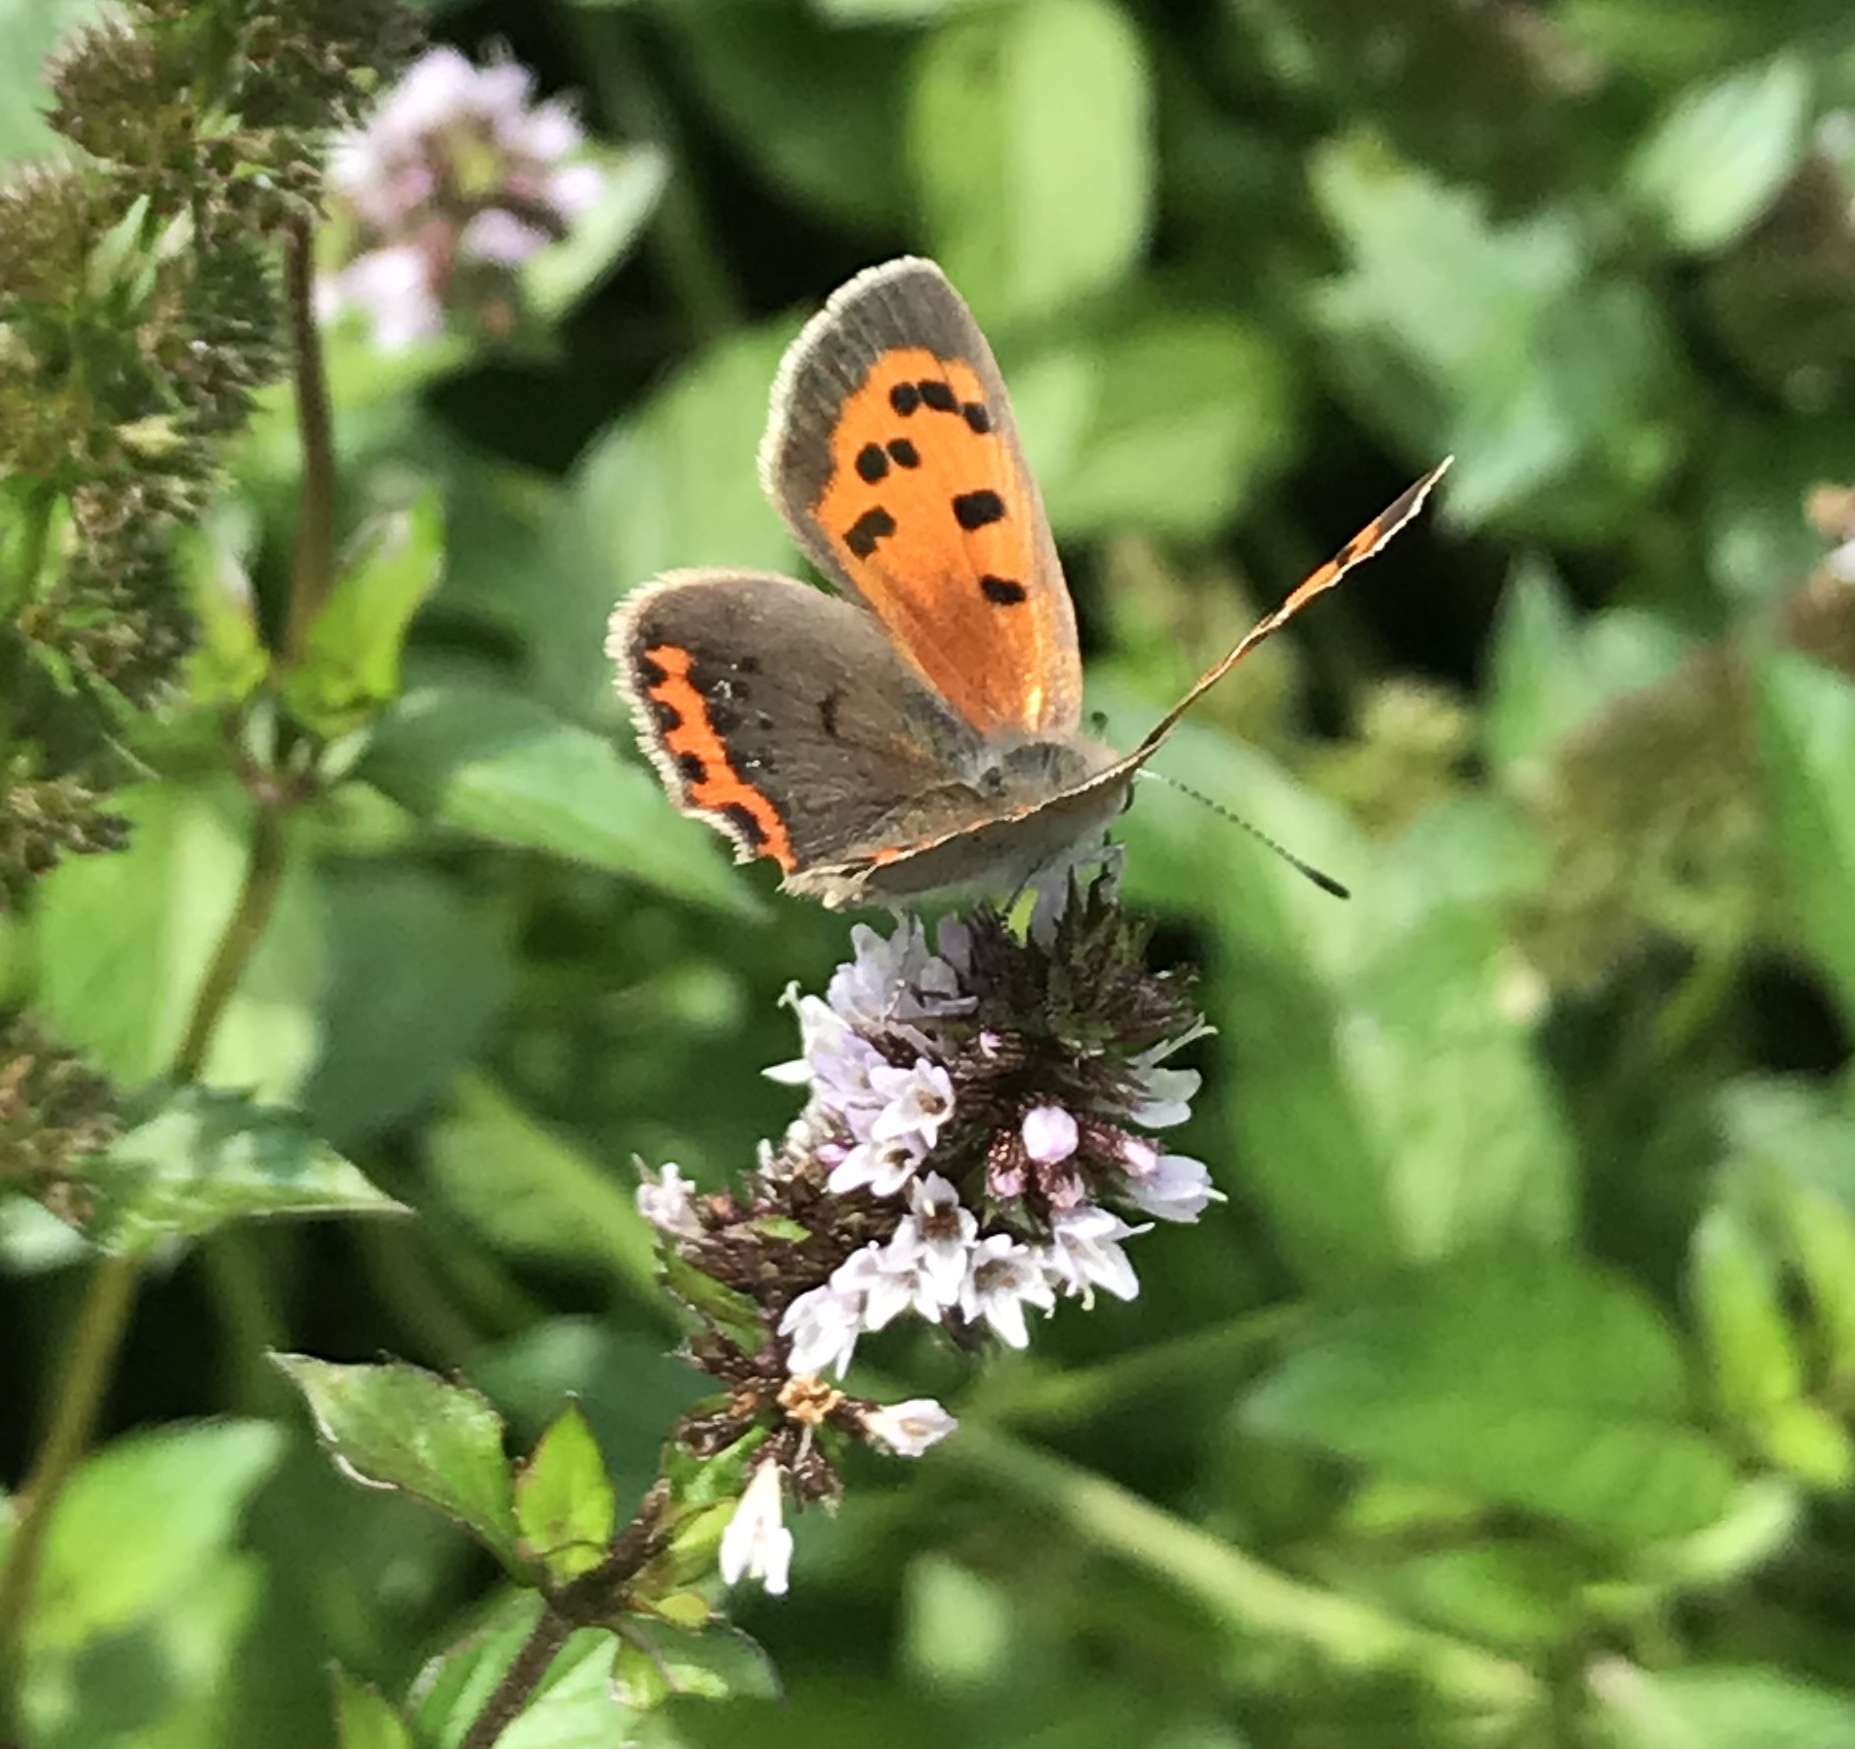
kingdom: Animalia
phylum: Arthropoda
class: Insecta
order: Lepidoptera
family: Lycaenidae
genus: Lycaena
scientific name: Lycaena hypophlaeas
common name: American copper
